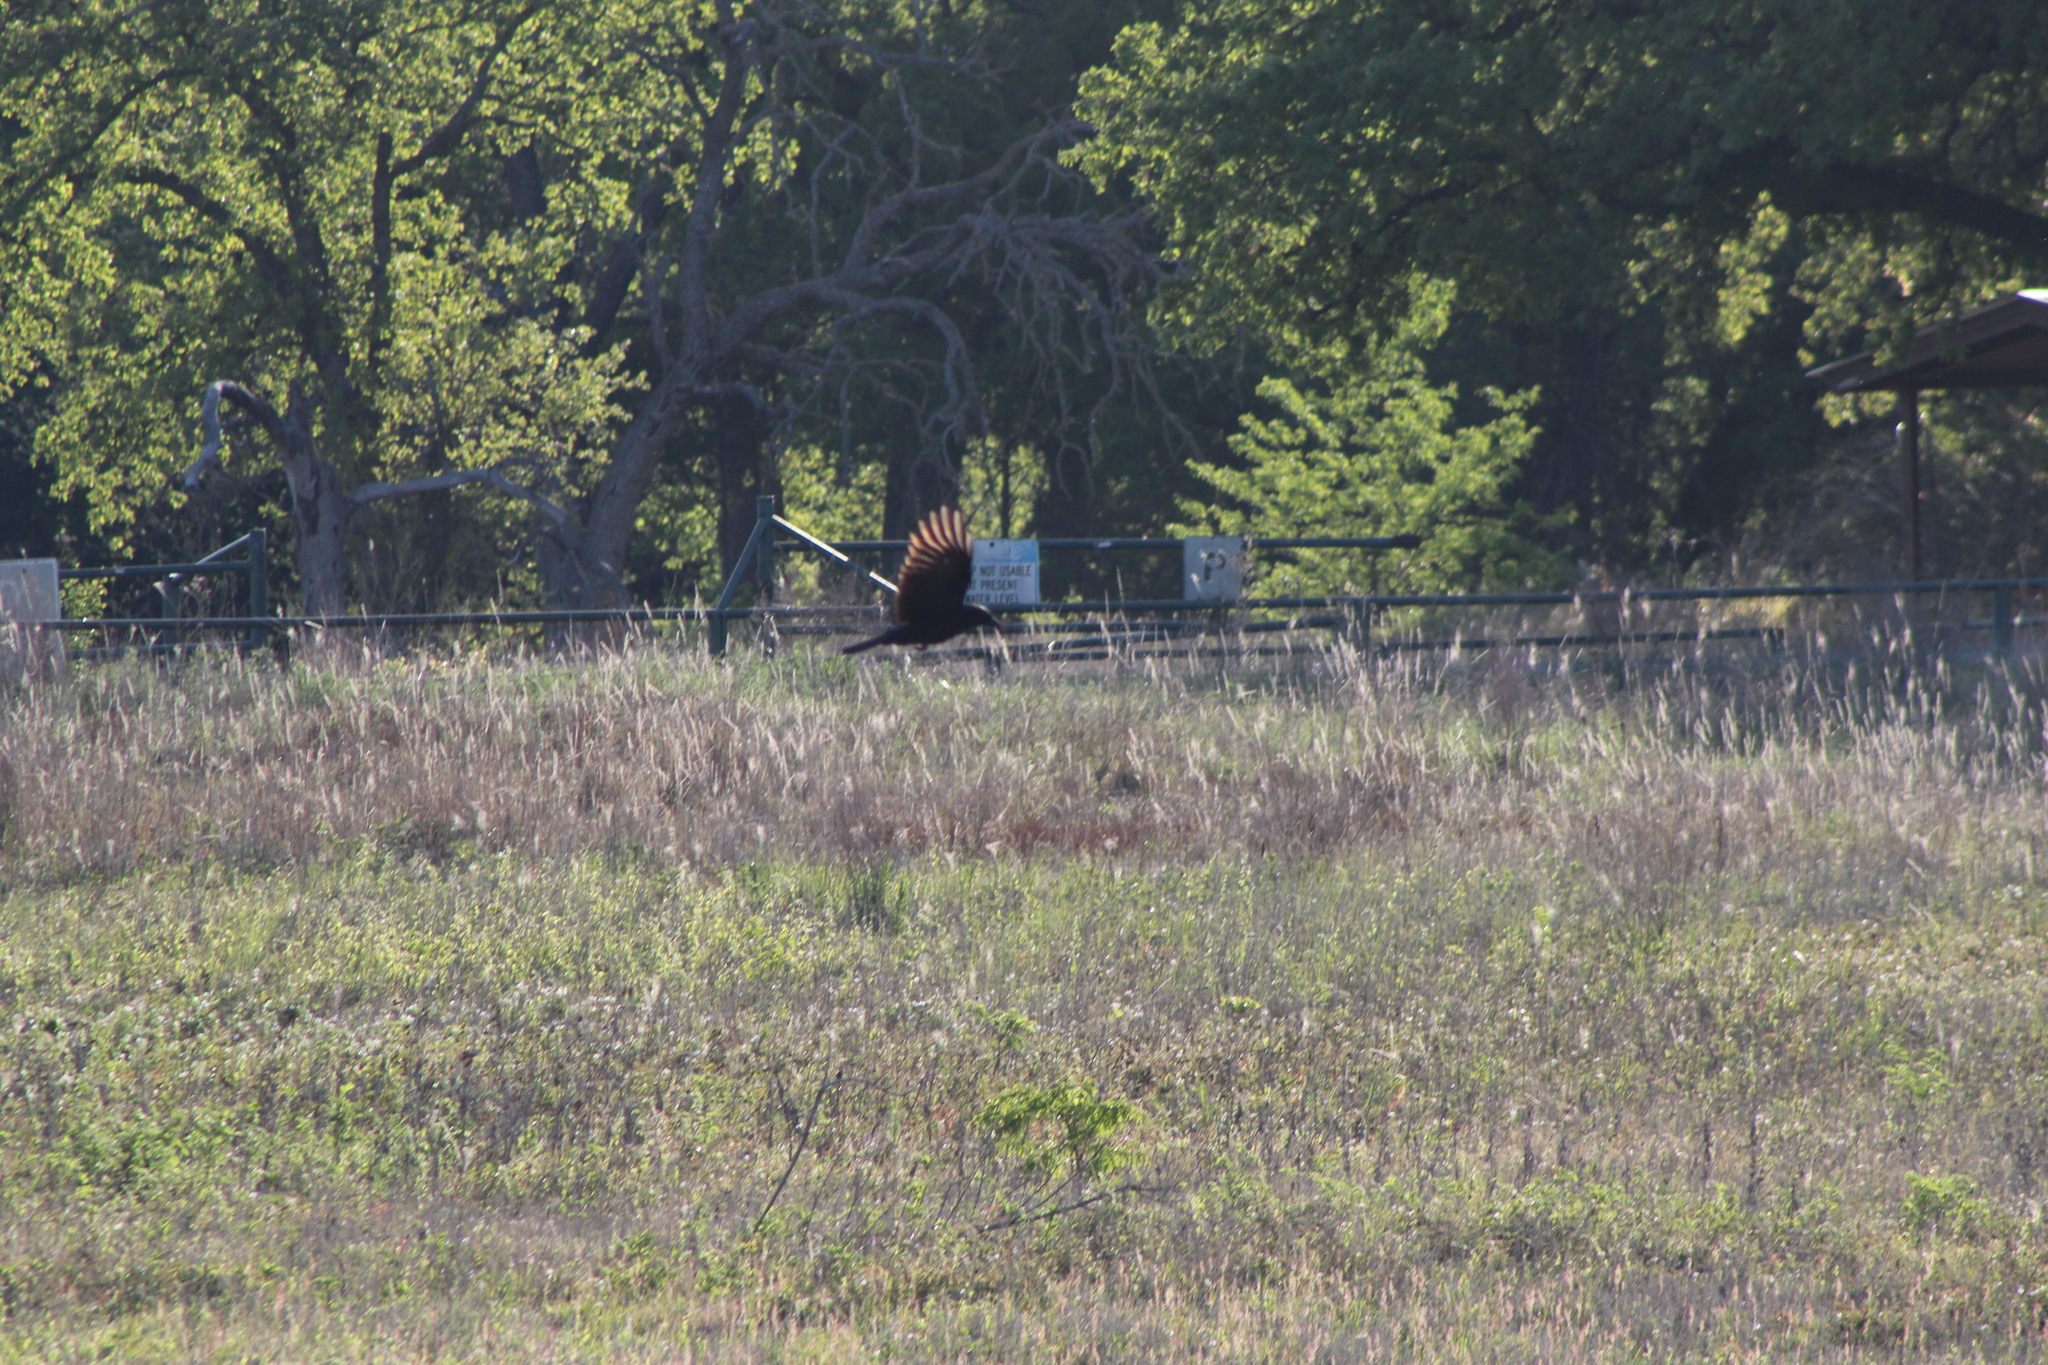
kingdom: Animalia
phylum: Chordata
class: Aves
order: Passeriformes
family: Corvidae
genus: Corvus
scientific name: Corvus brachyrhynchos
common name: American crow
